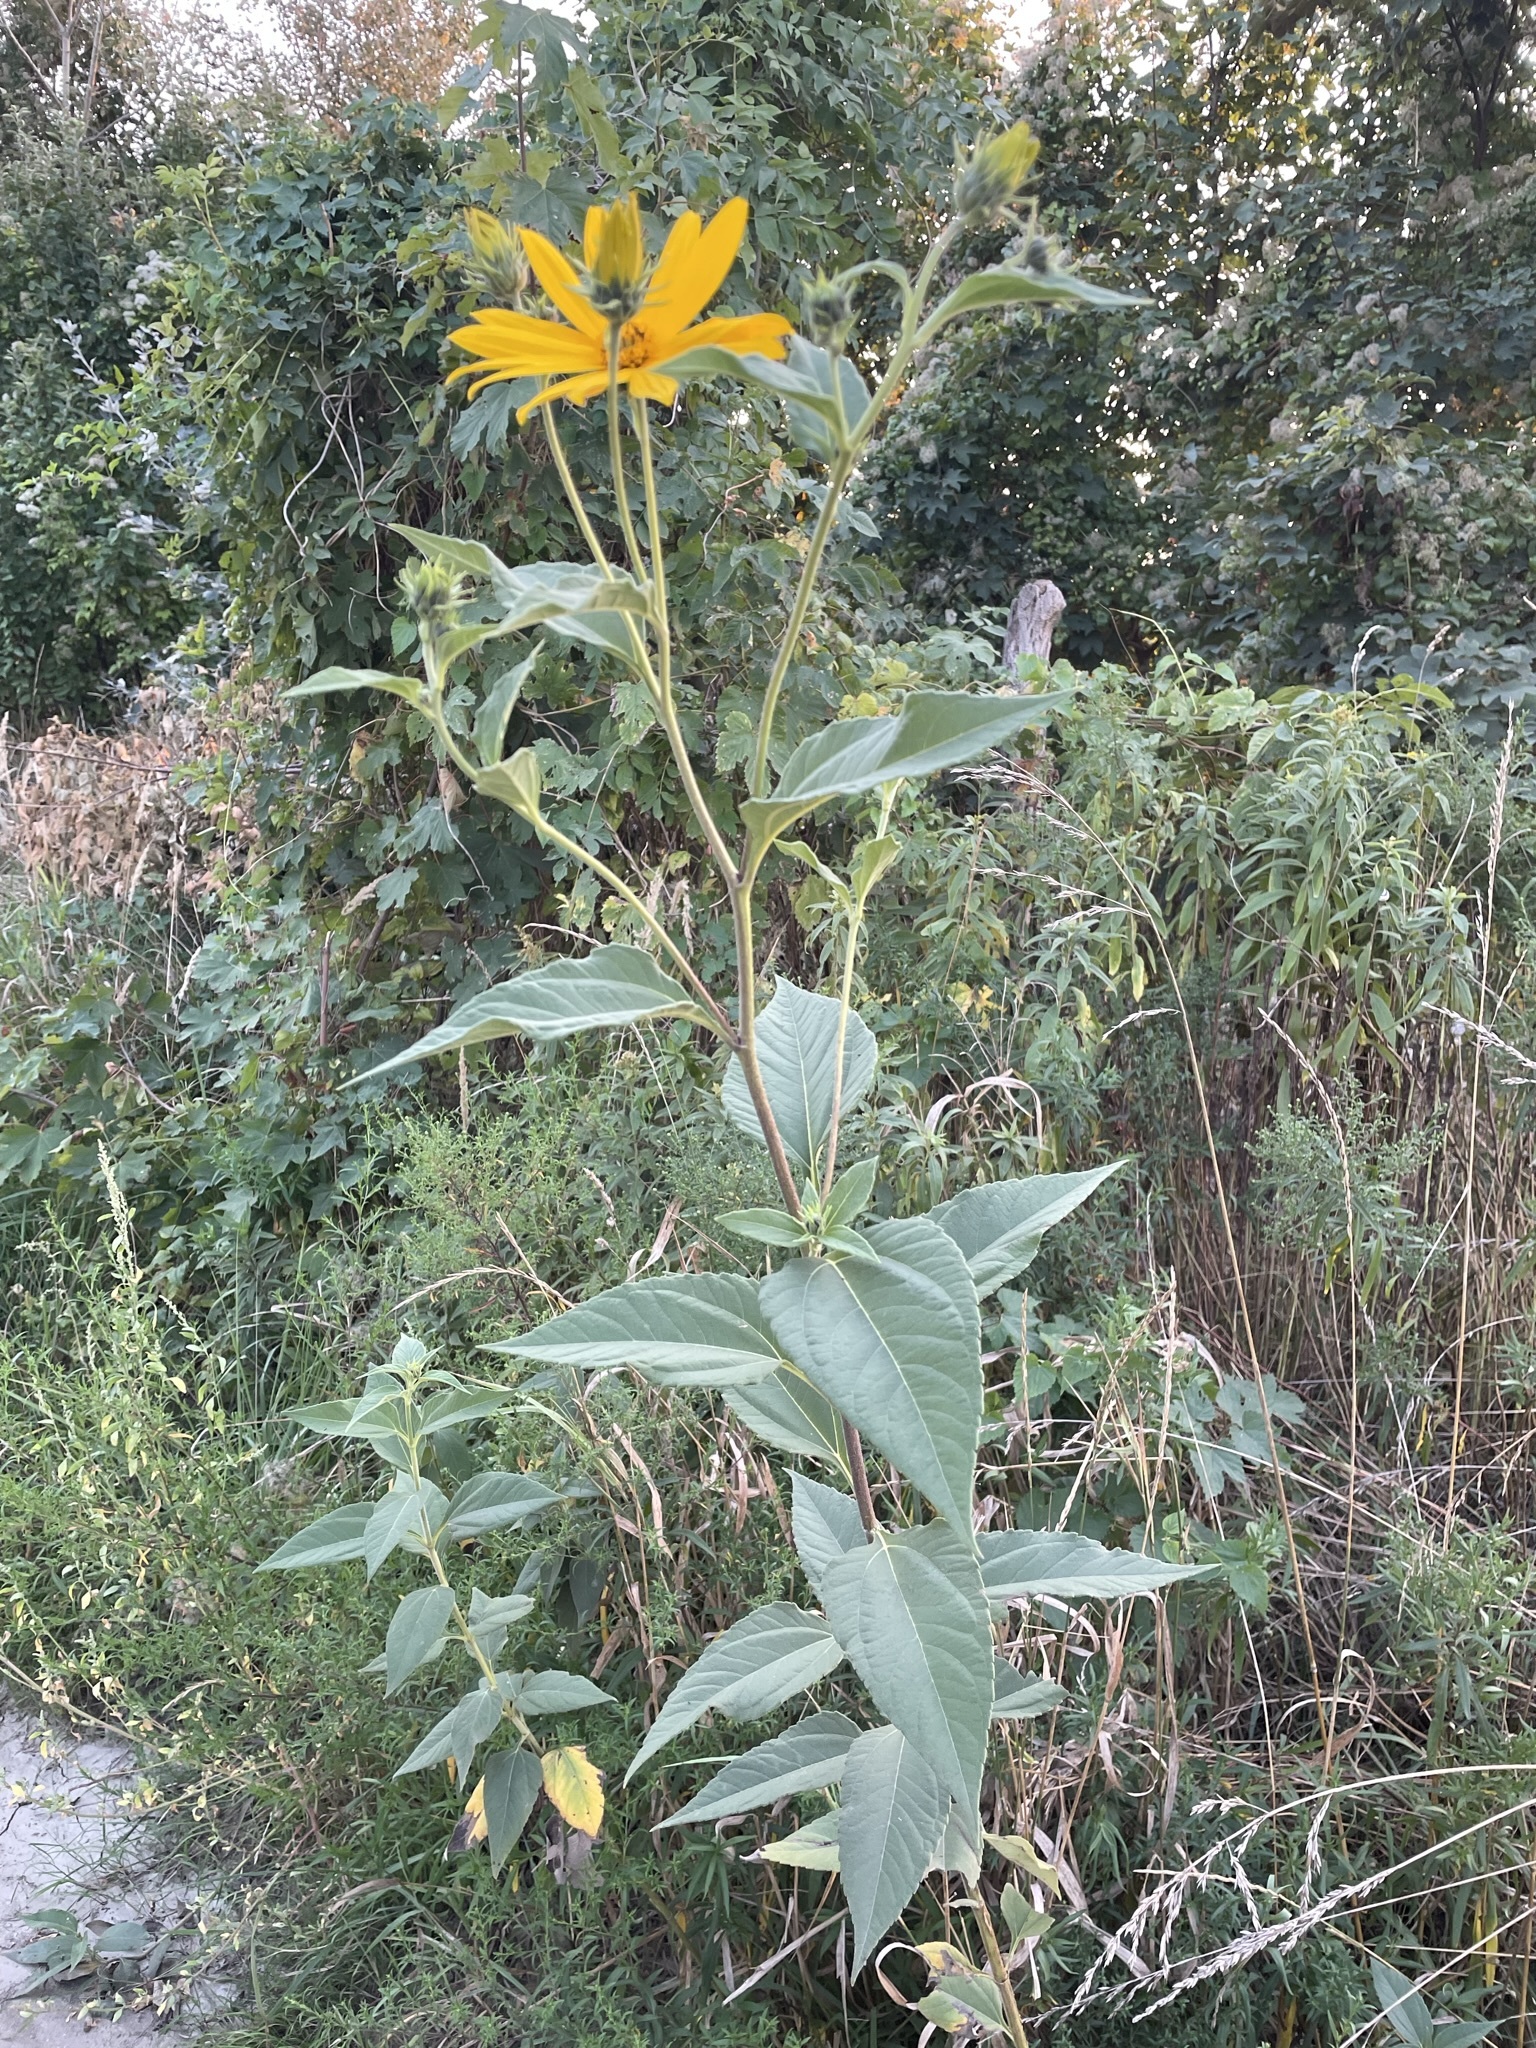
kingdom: Plantae
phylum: Tracheophyta
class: Magnoliopsida
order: Asterales
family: Asteraceae
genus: Helianthus
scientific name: Helianthus tuberosus
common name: Jerusalem artichoke
